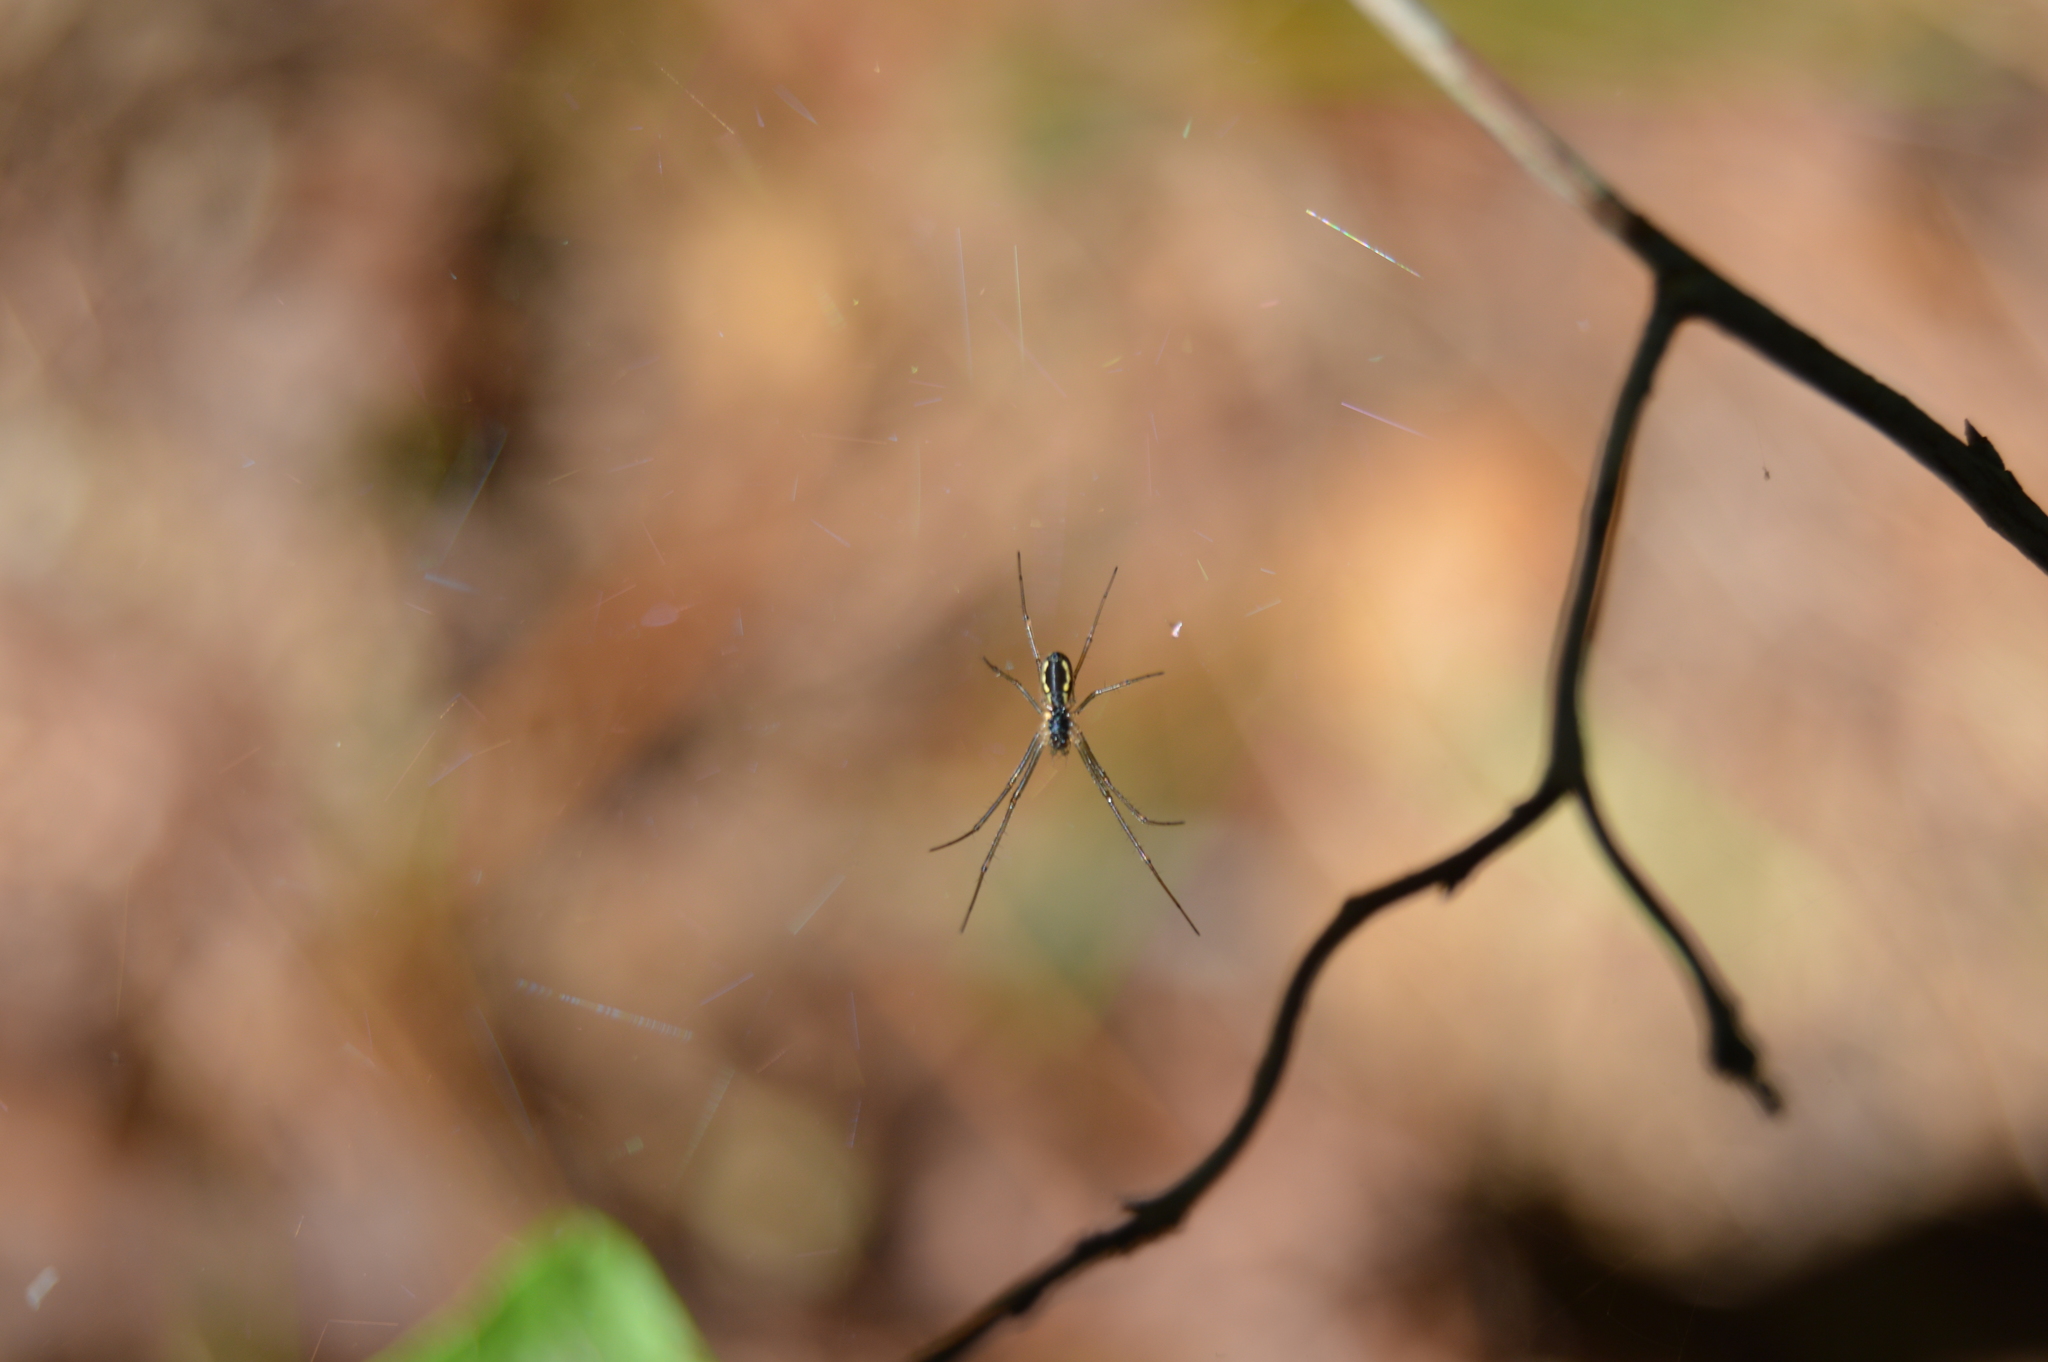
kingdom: Animalia
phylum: Arthropoda
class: Arachnida
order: Araneae
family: Linyphiidae
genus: Neriene
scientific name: Neriene radiata
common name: Filmy dome spider
